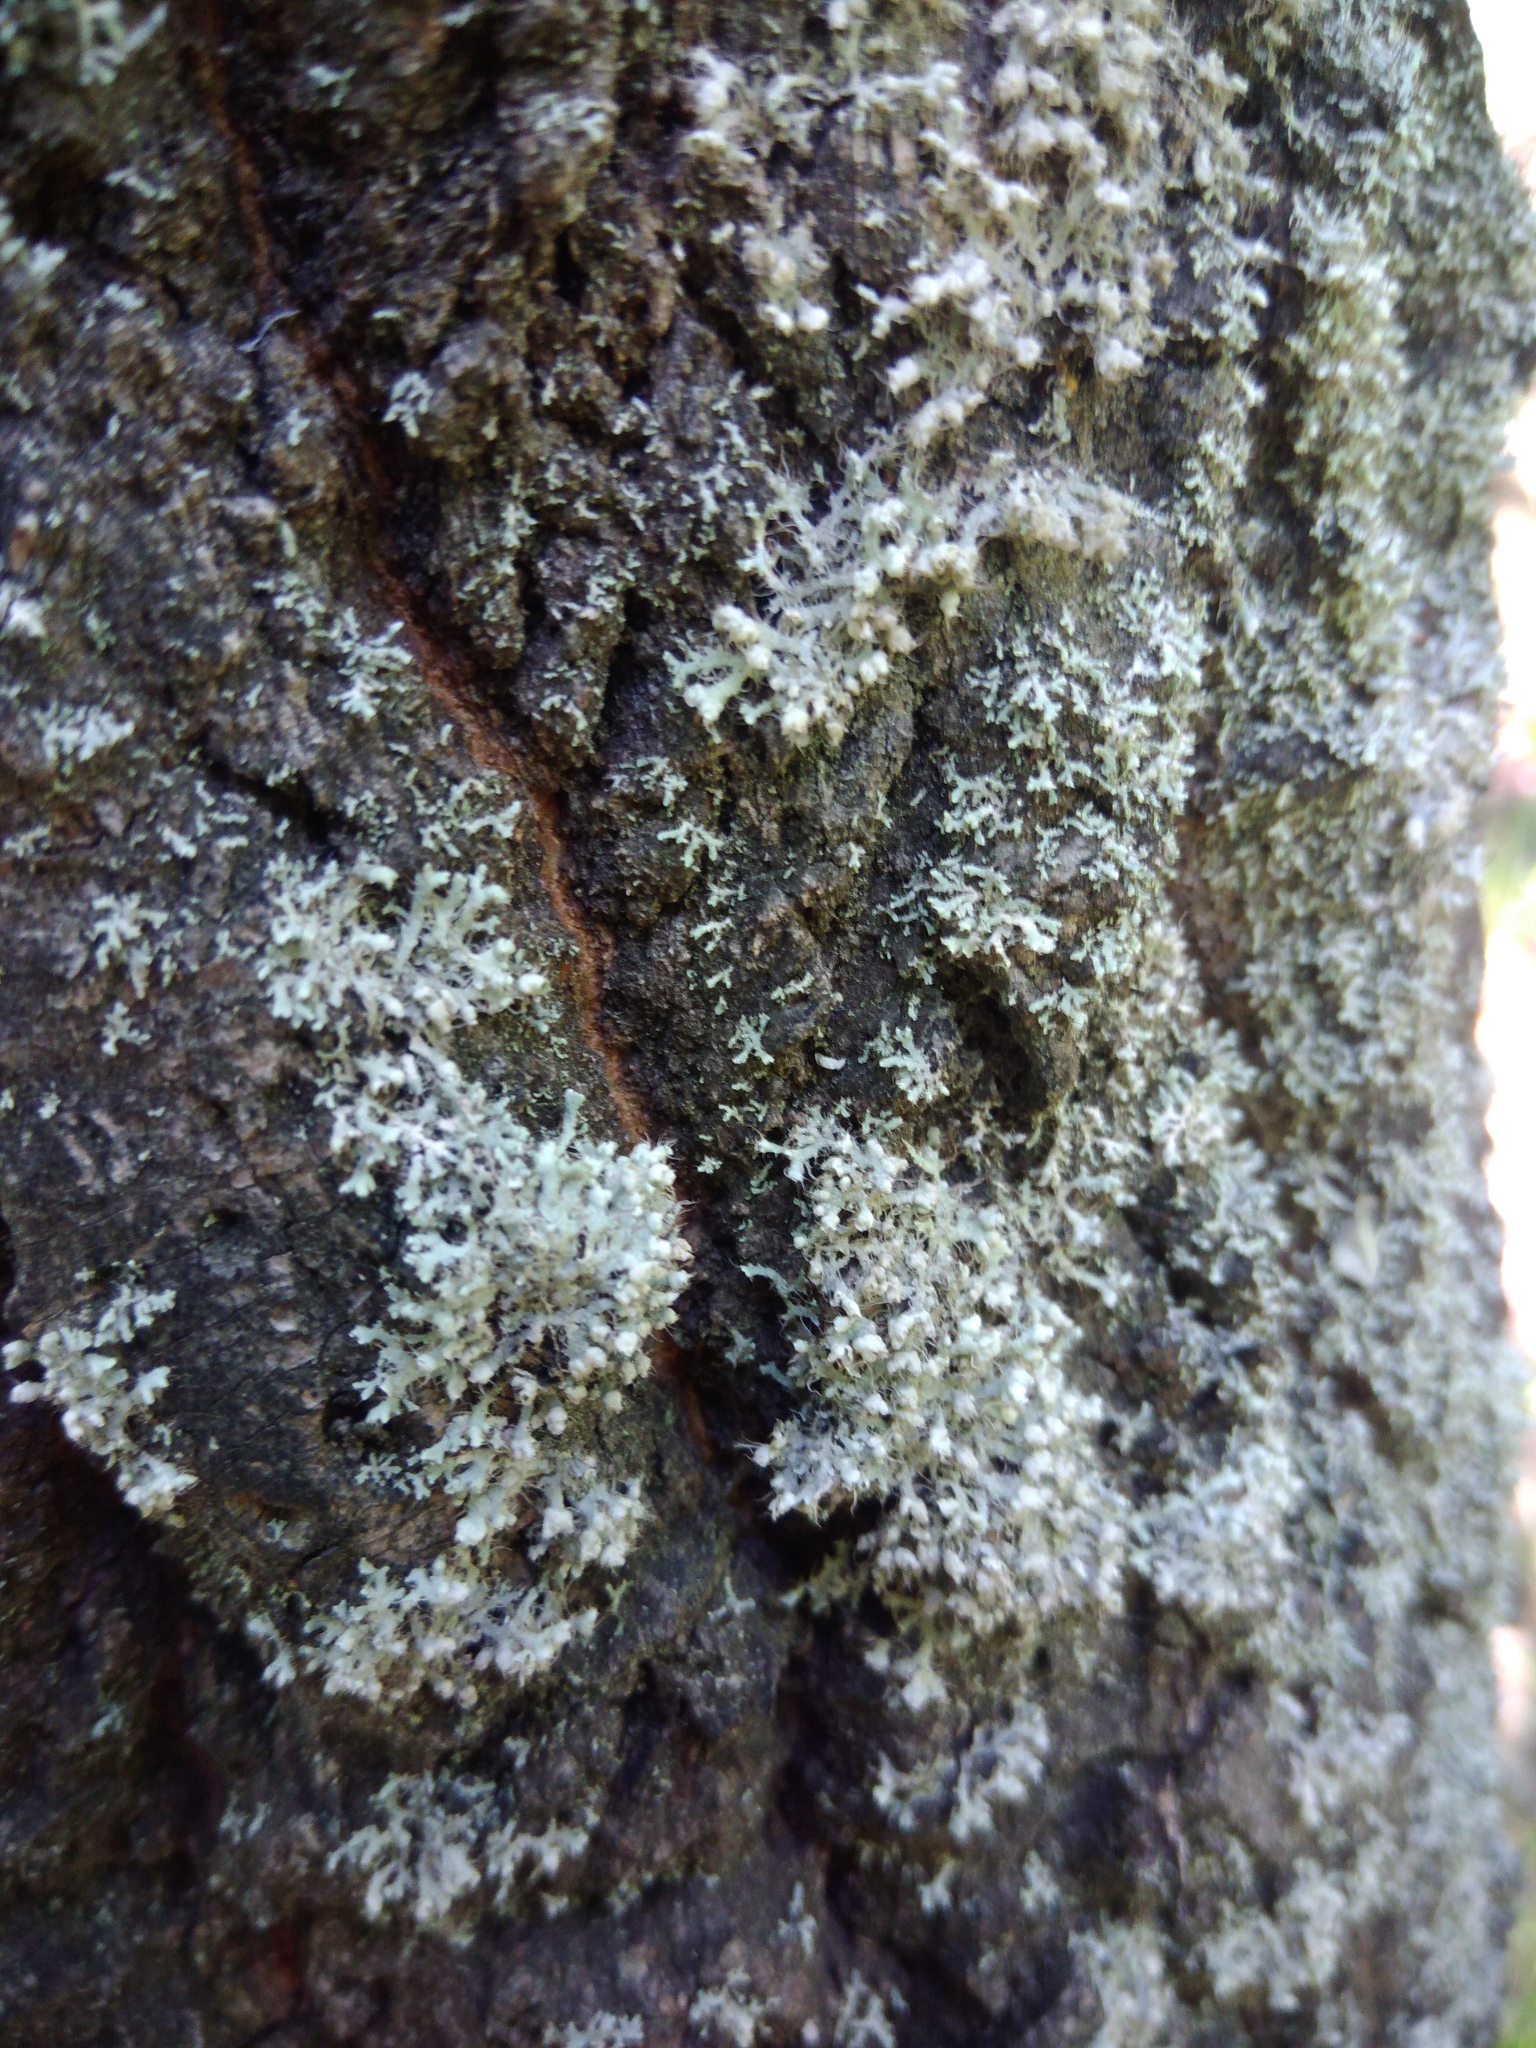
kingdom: Fungi
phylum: Ascomycota
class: Lecanoromycetes
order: Caliciales
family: Physciaceae
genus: Physcia
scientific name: Physcia adscendens
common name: Hooded rosette lichen
